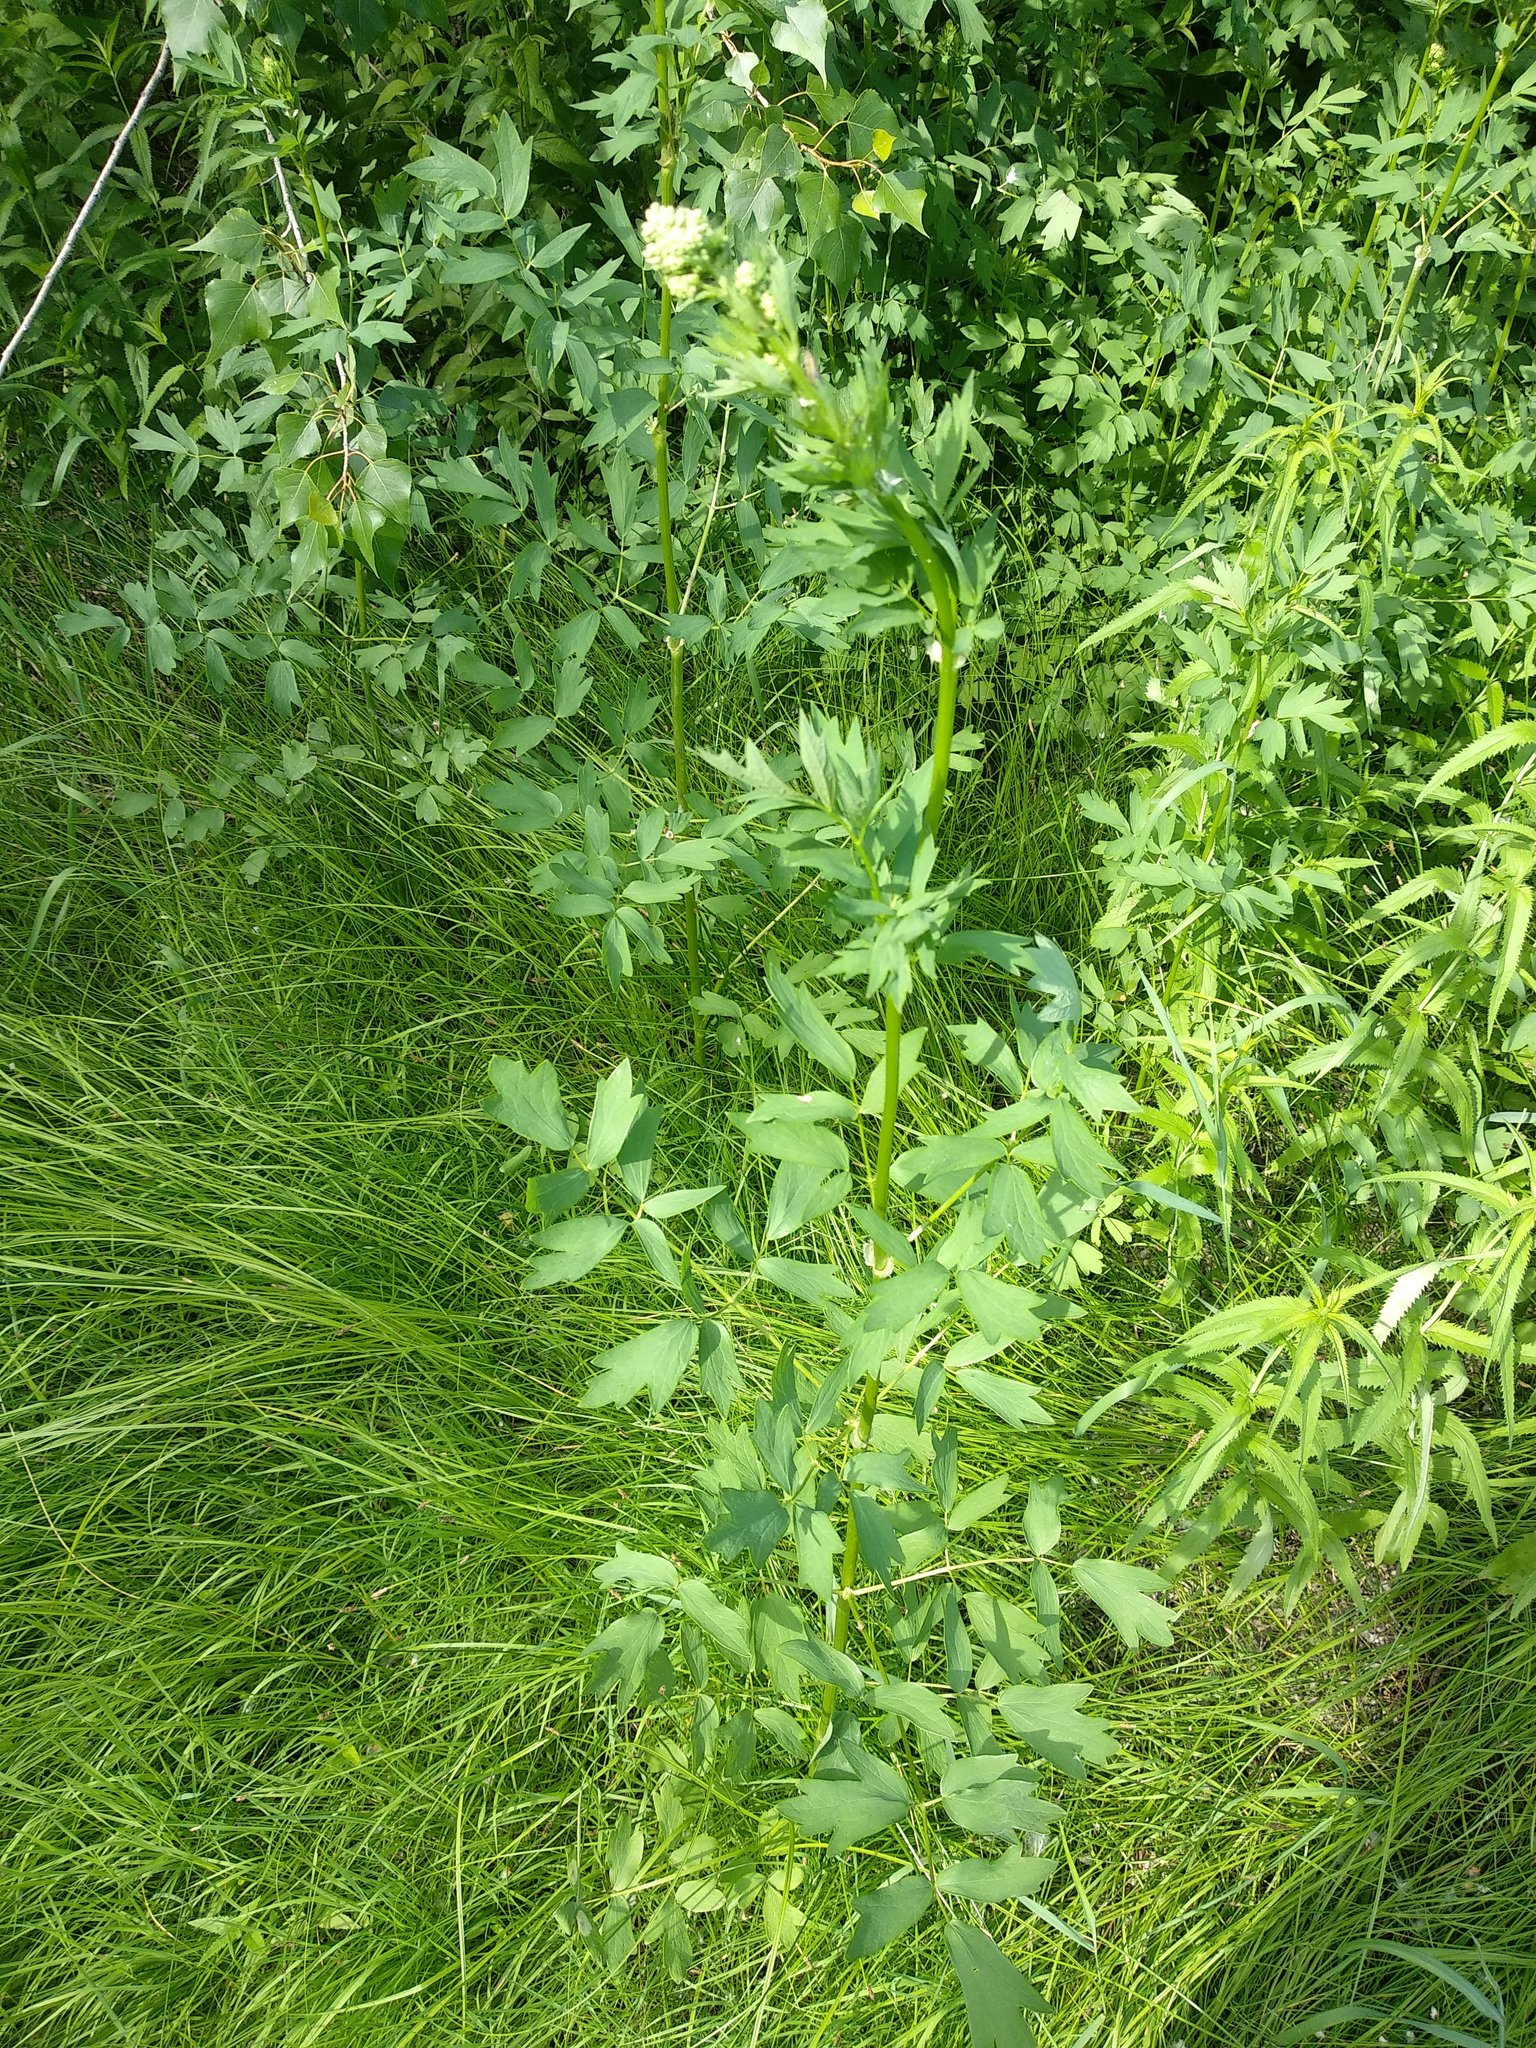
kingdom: Plantae
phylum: Tracheophyta
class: Magnoliopsida
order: Ranunculales
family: Ranunculaceae
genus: Thalictrum
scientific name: Thalictrum simplex
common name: Small meadow-rue
